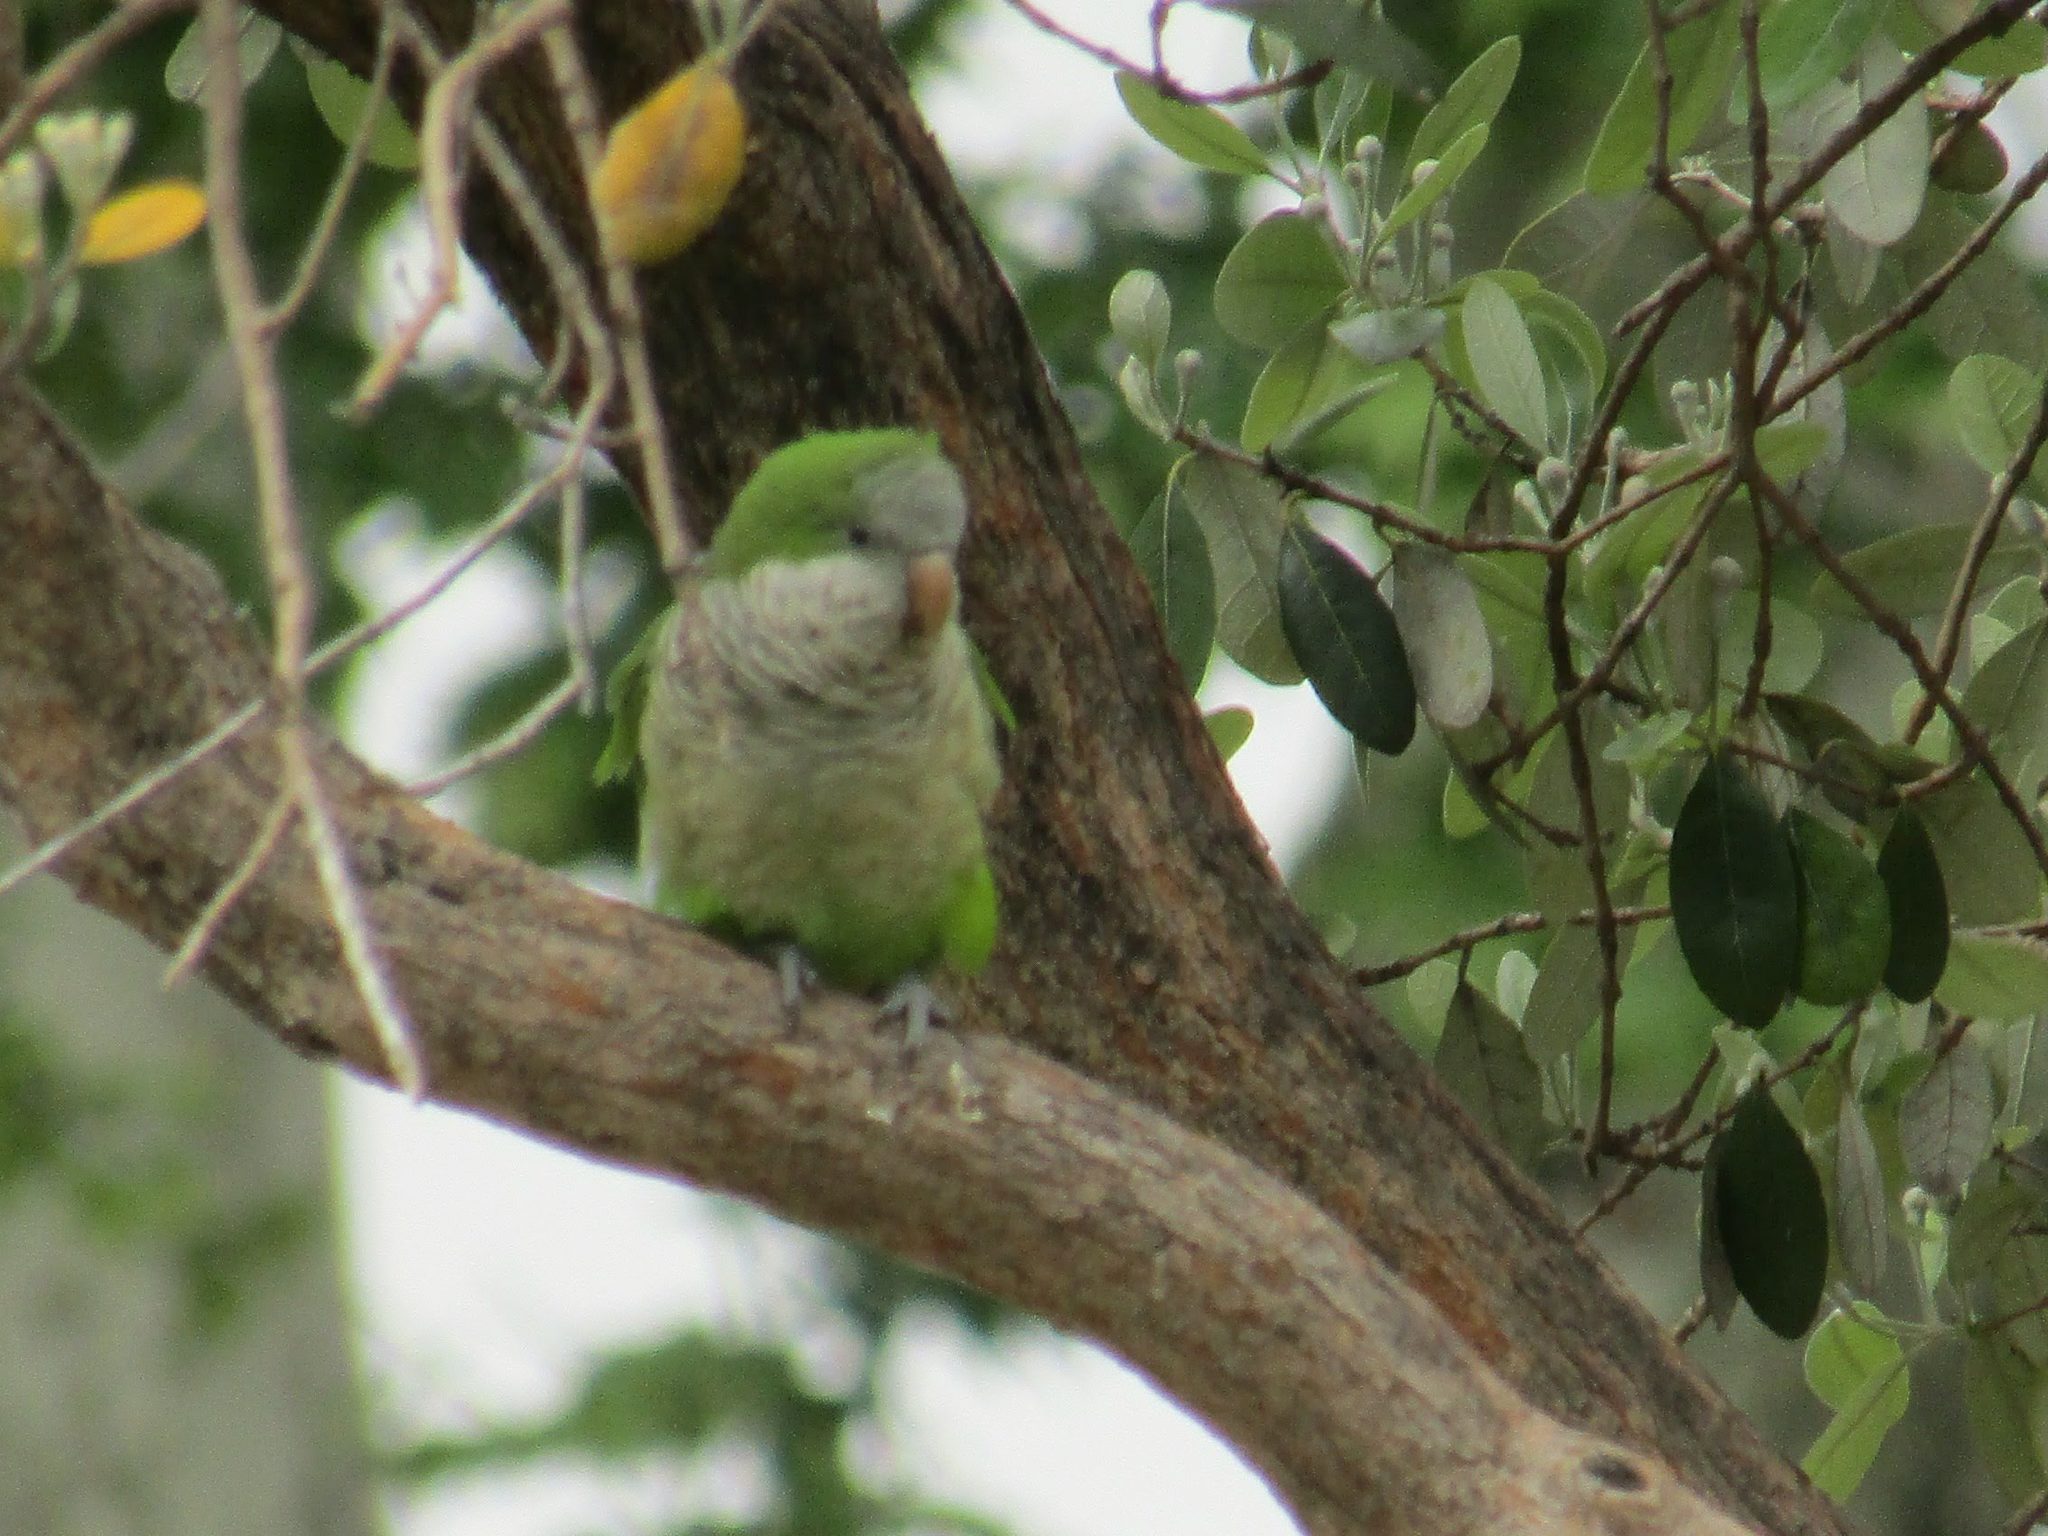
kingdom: Animalia
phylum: Chordata
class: Aves
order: Psittaciformes
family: Psittacidae
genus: Myiopsitta
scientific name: Myiopsitta monachus
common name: Monk parakeet
